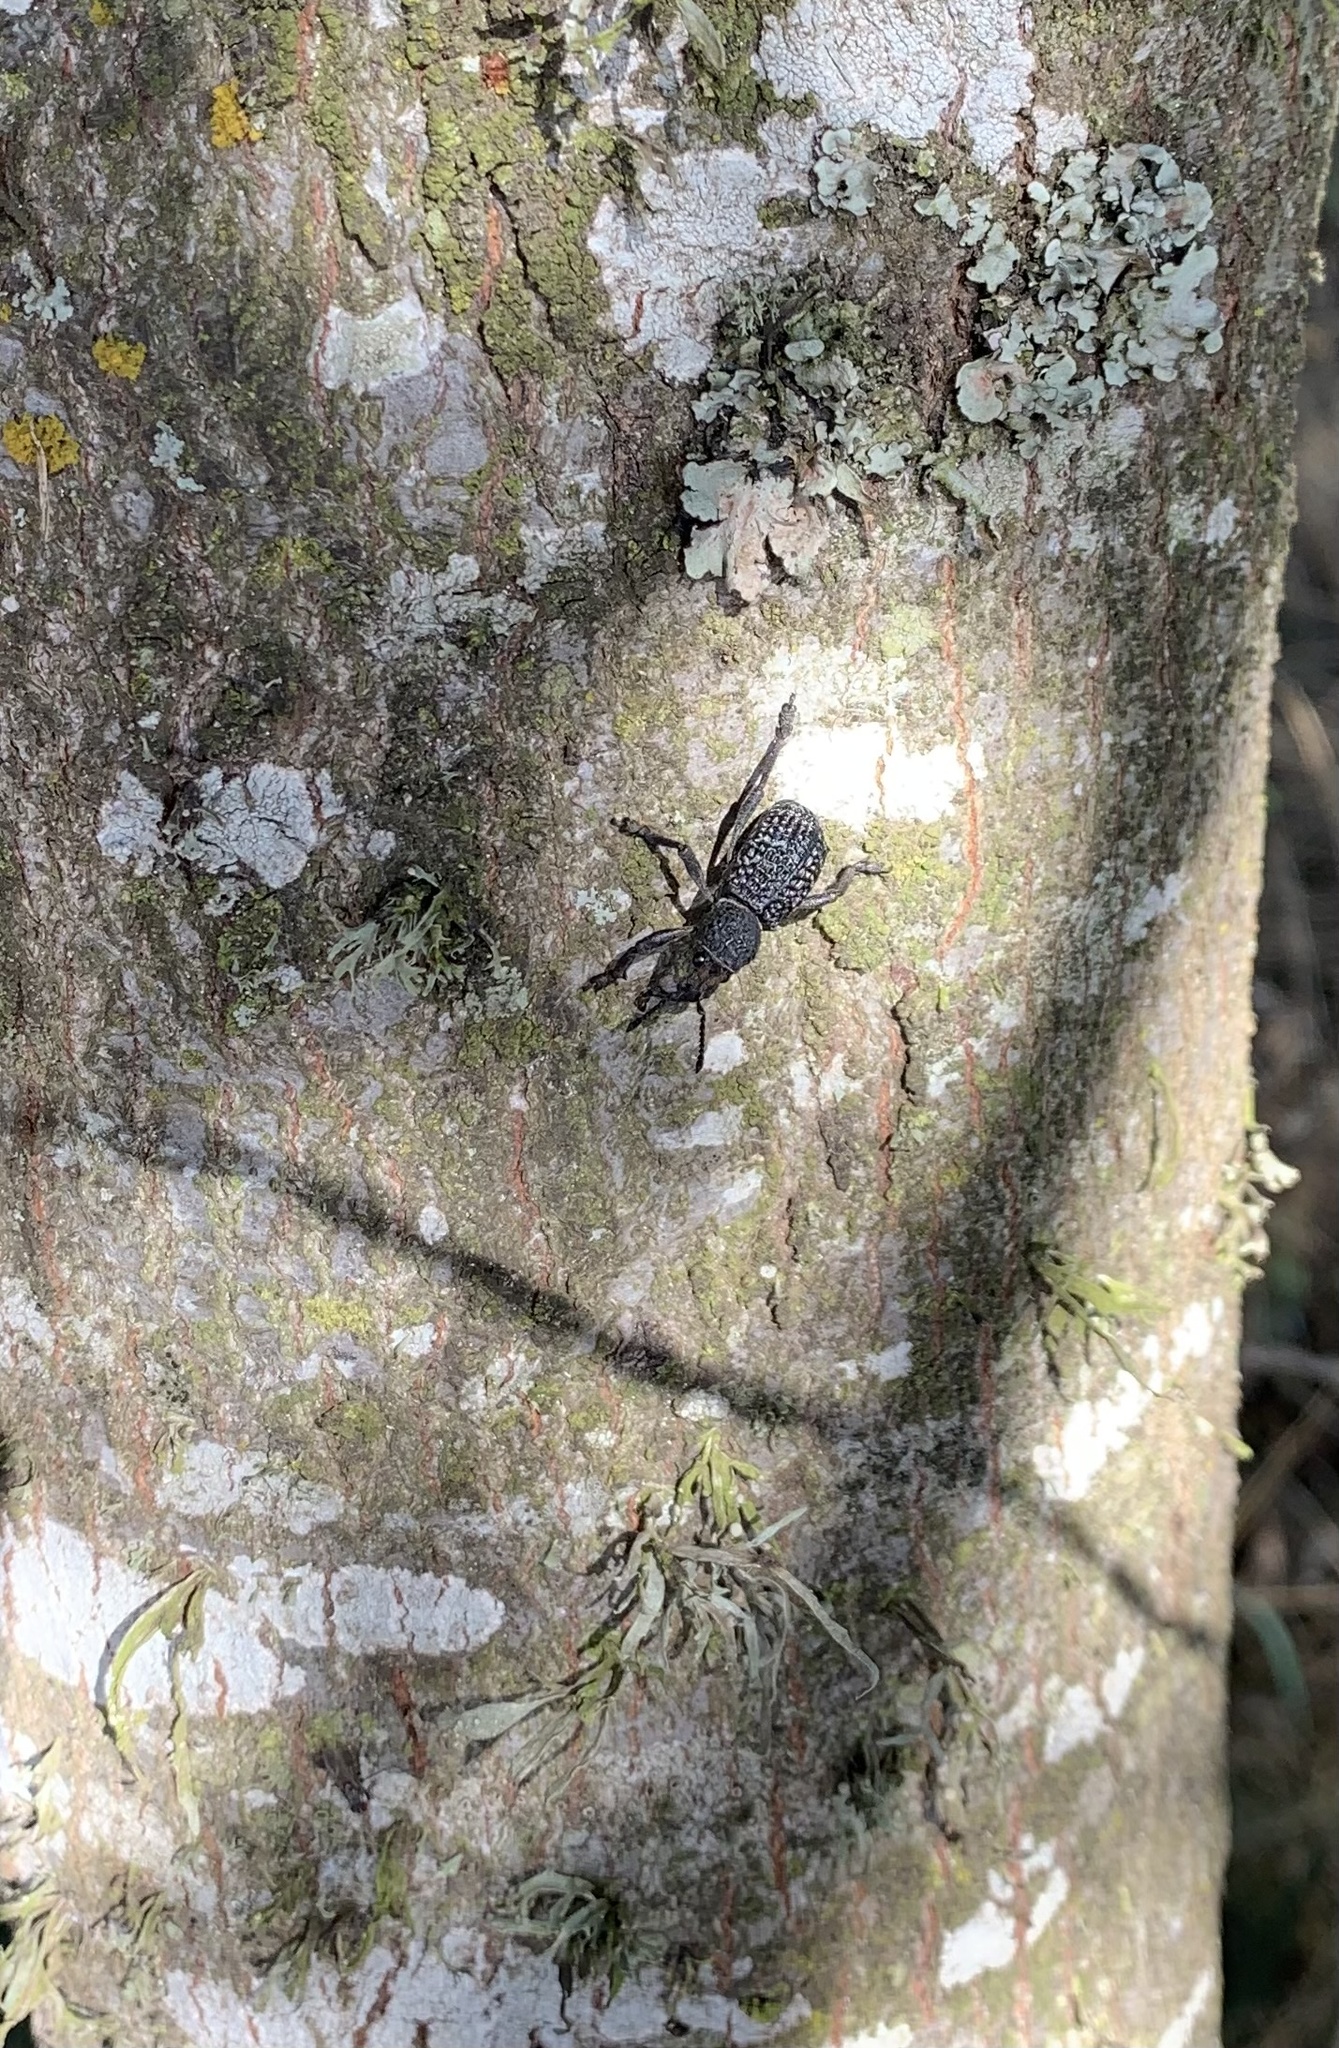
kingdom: Animalia
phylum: Arthropoda
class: Insecta
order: Coleoptera
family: Curculionidae
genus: Aegorhinus
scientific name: Aegorhinus superciliosus
